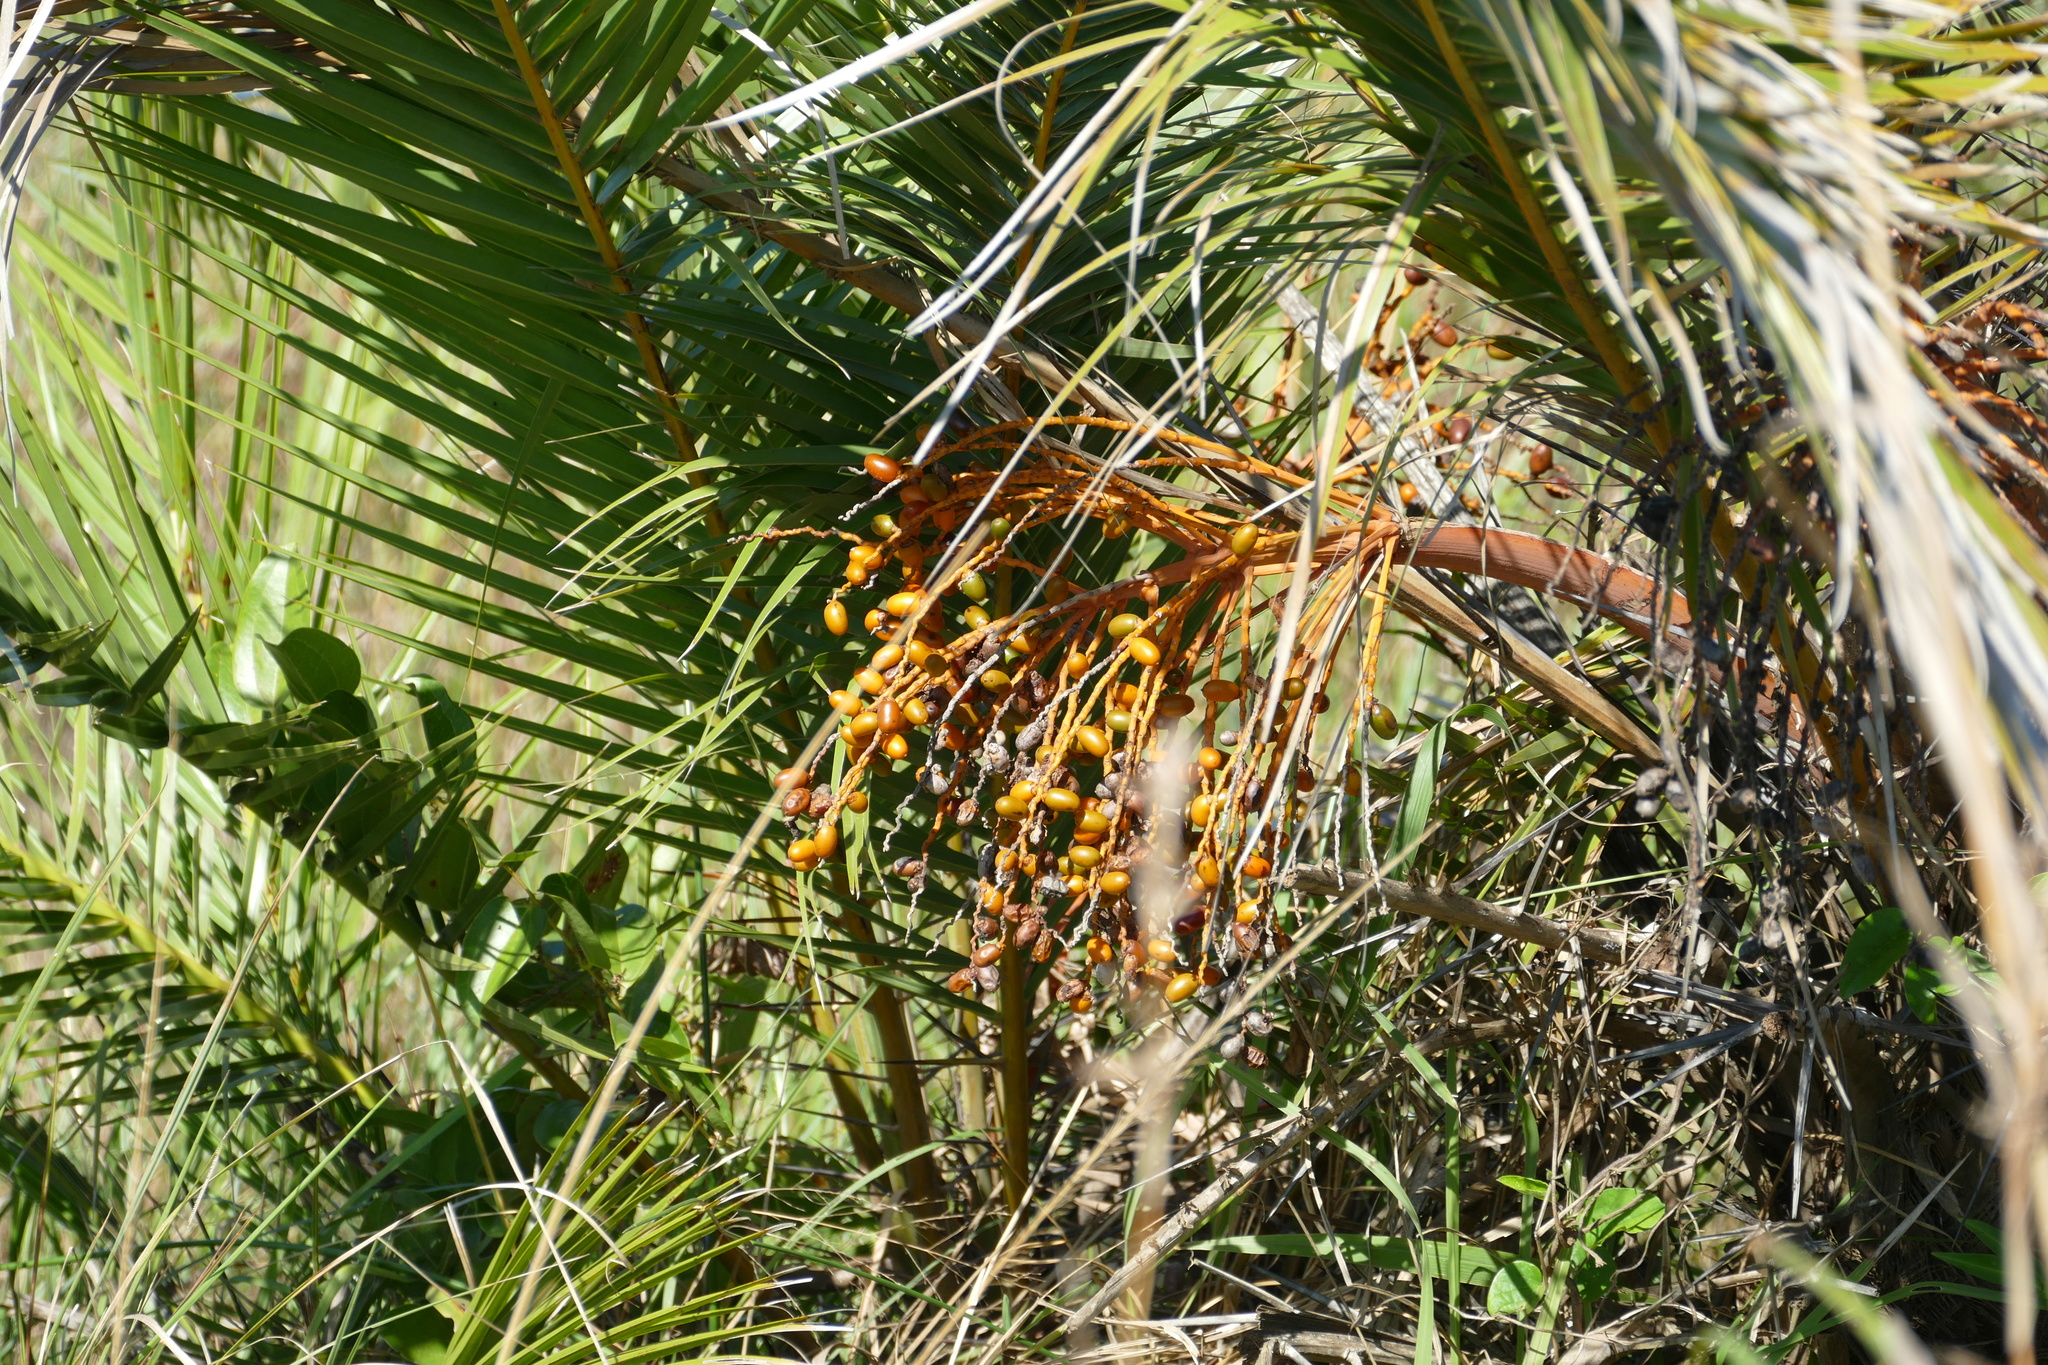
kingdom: Plantae
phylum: Tracheophyta
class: Liliopsida
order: Arecales
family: Arecaceae
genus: Phoenix
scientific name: Phoenix reclinata
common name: Senegal date palm
